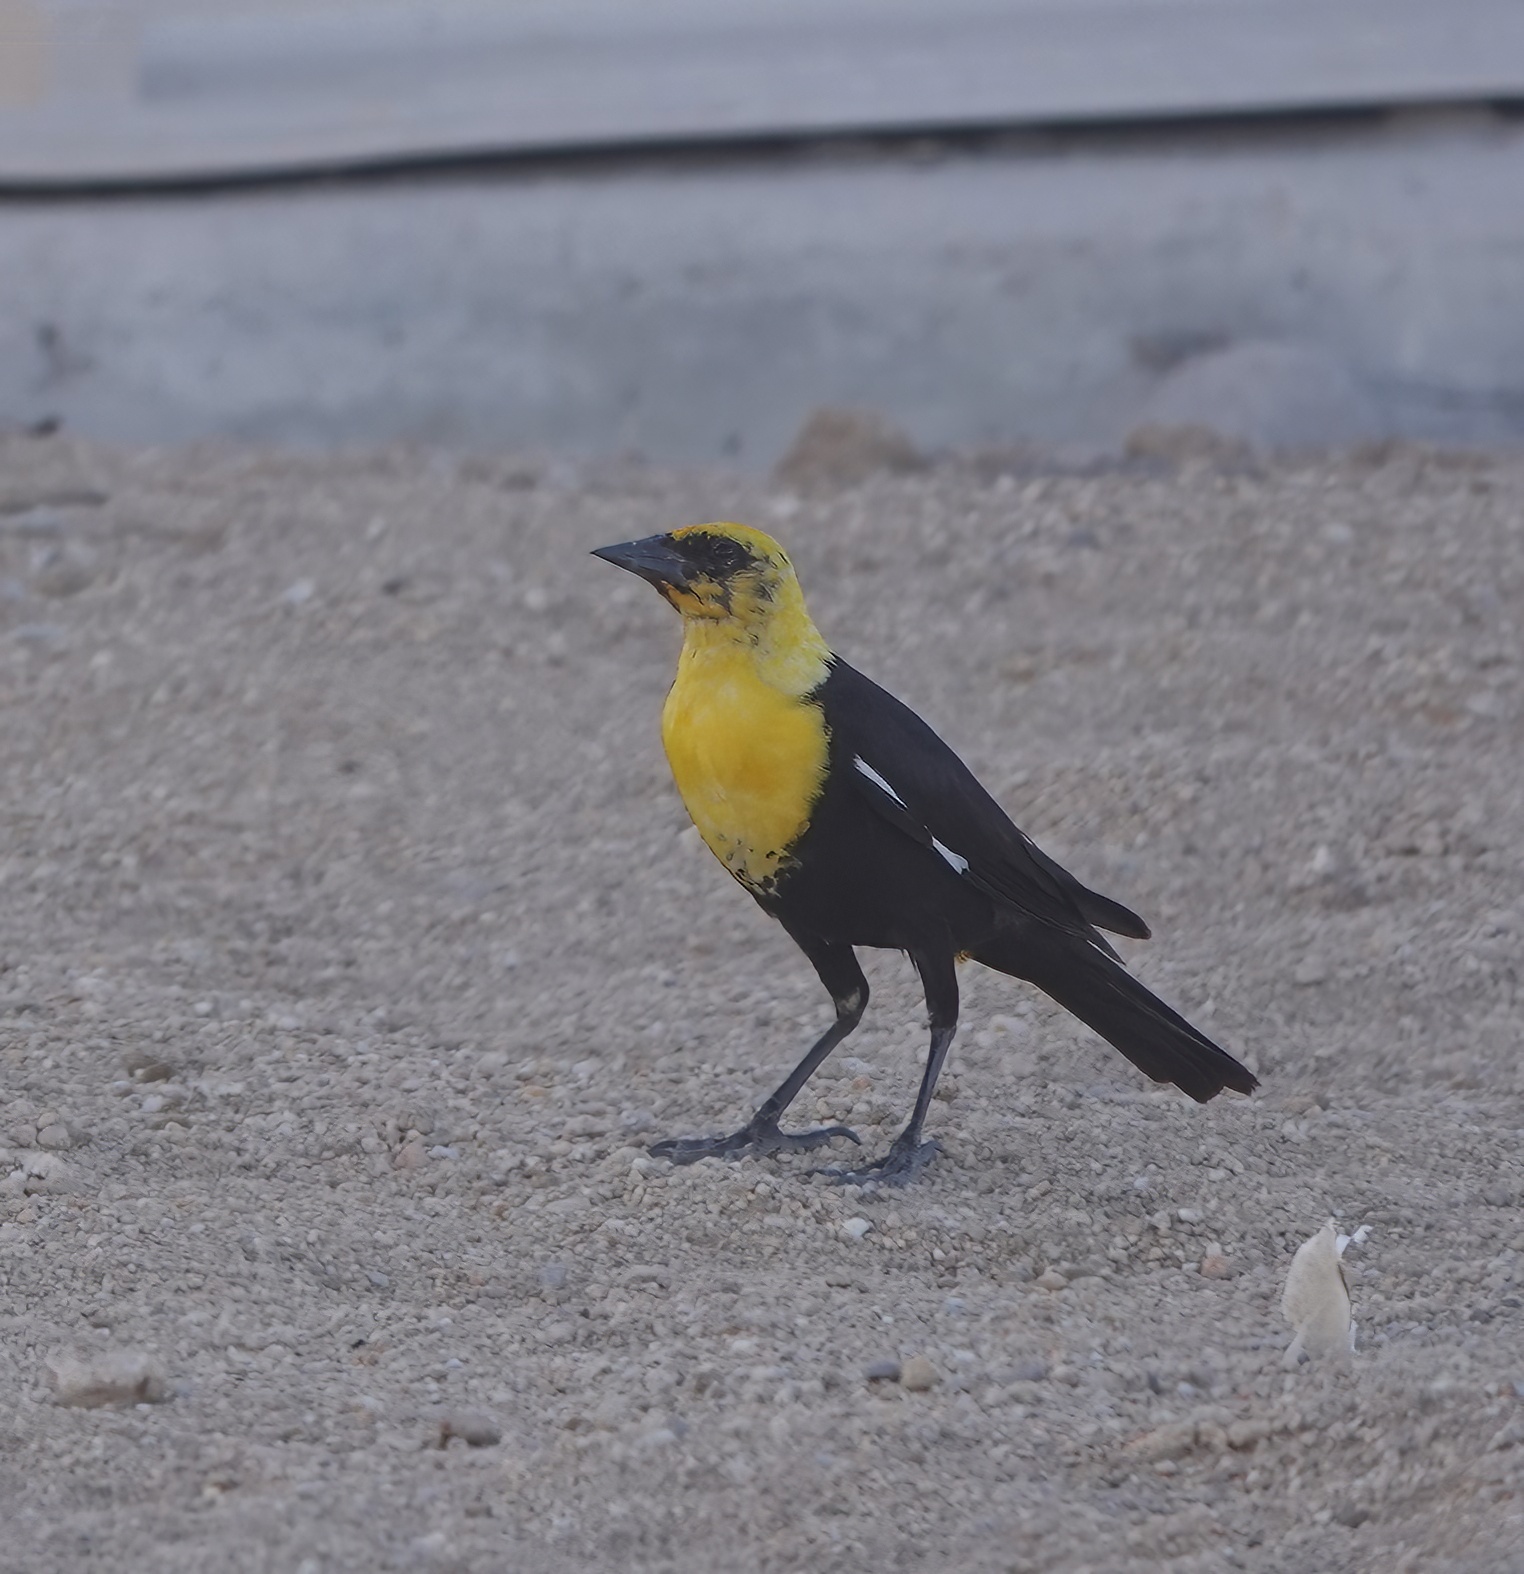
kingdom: Animalia
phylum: Chordata
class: Aves
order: Passeriformes
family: Icteridae
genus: Xanthocephalus
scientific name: Xanthocephalus xanthocephalus
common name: Yellow-headed blackbird
